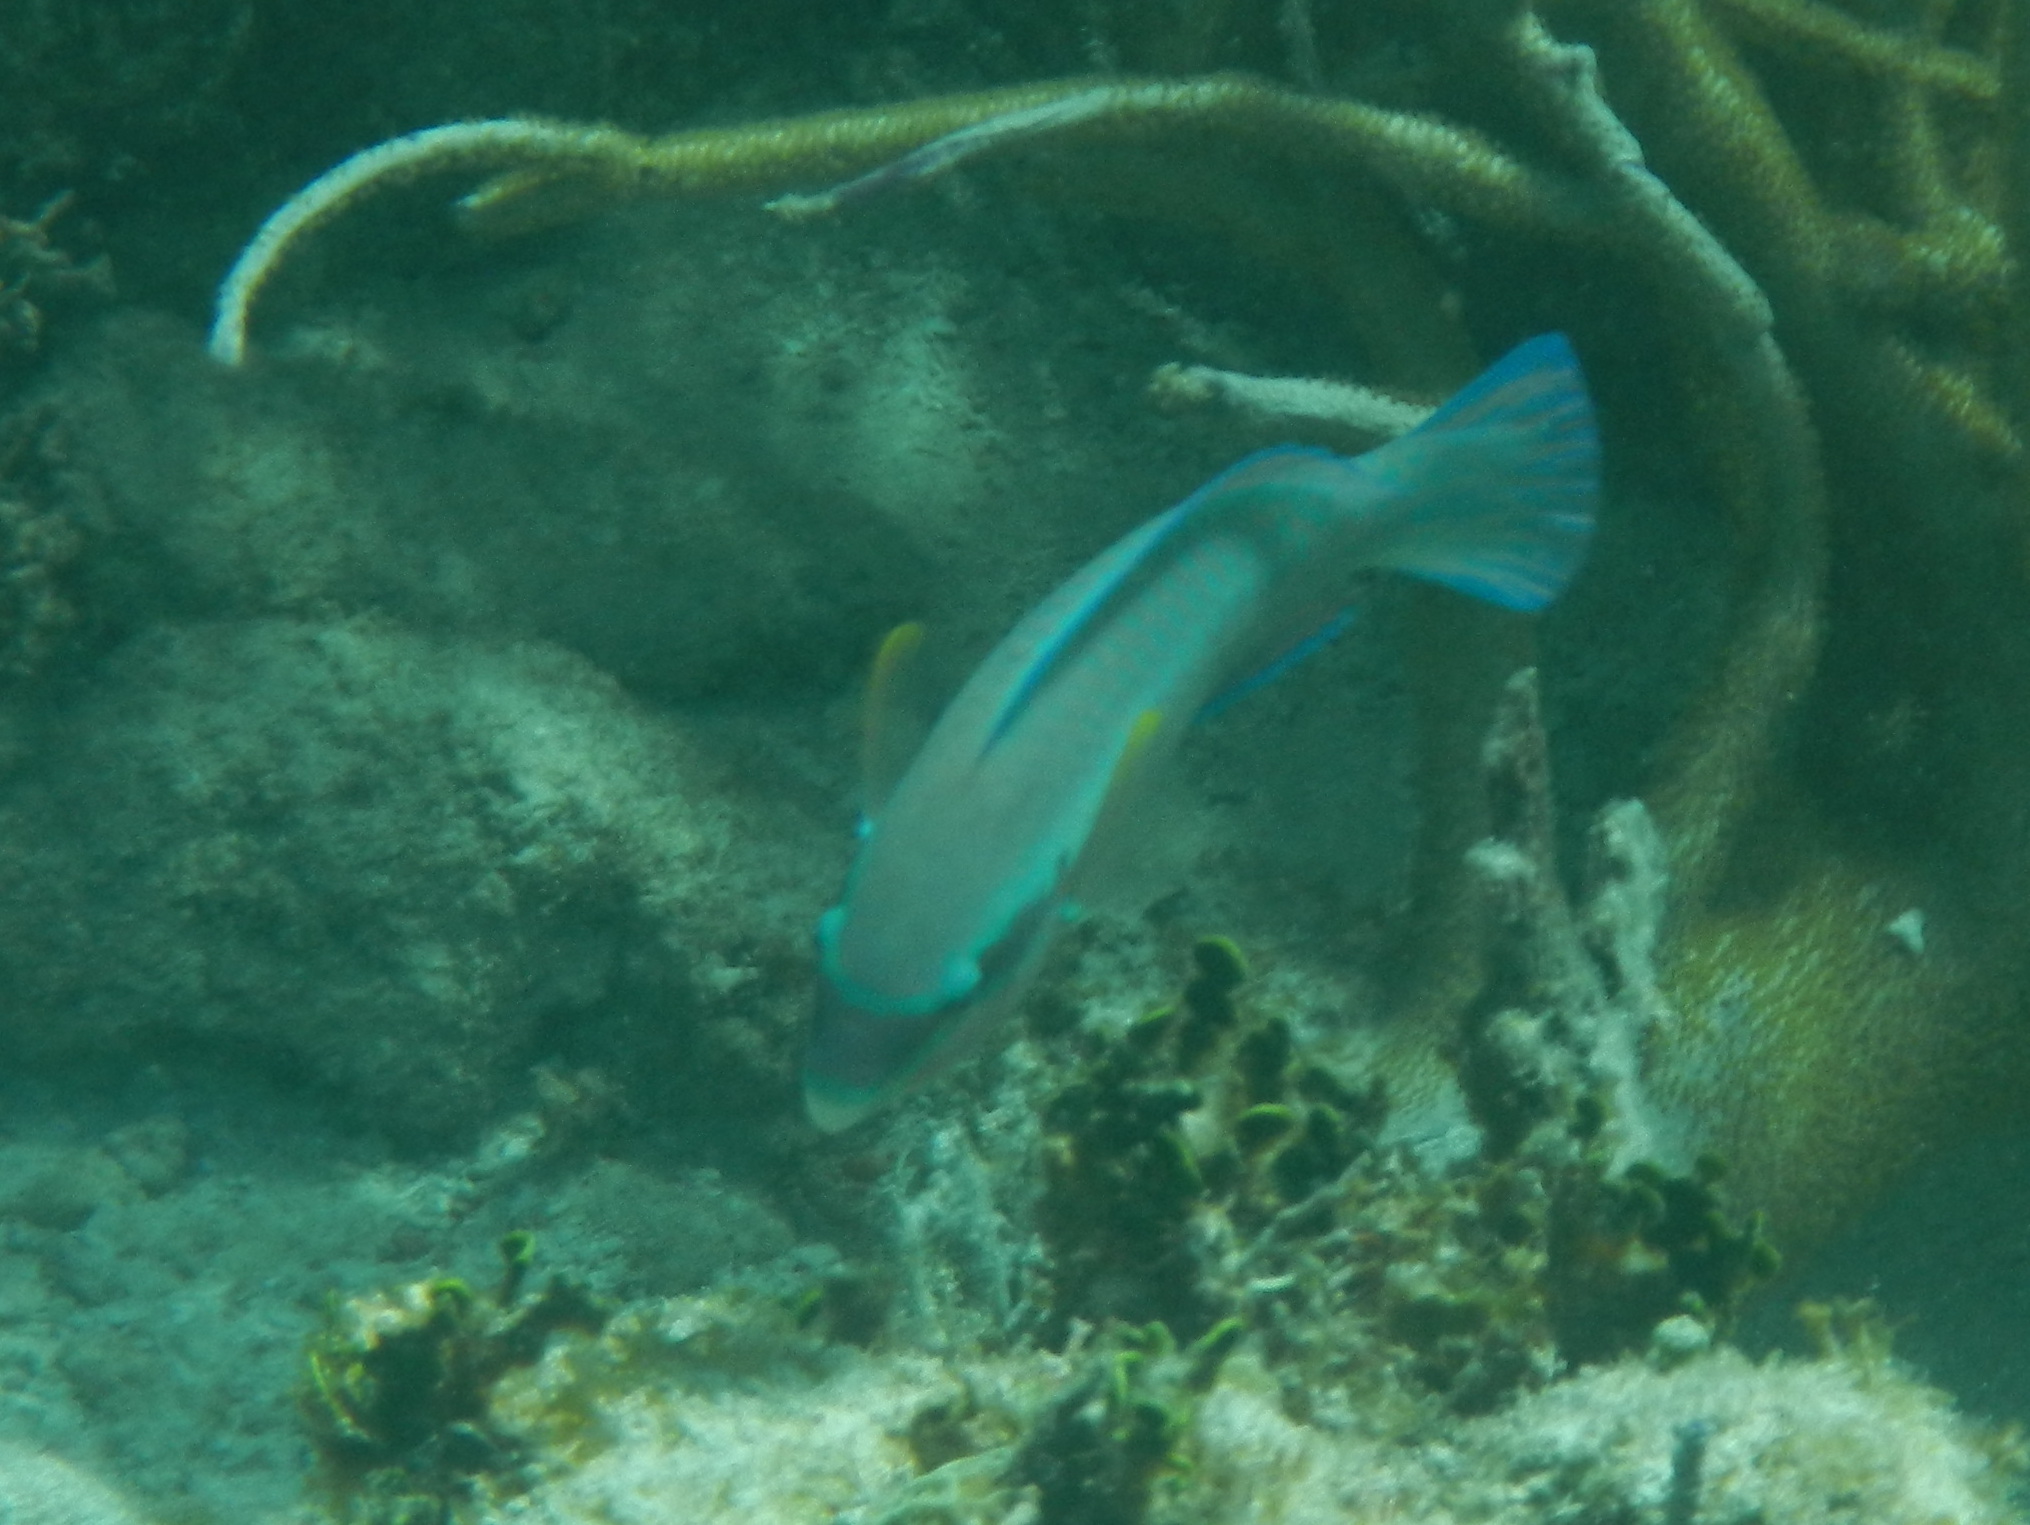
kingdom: Animalia
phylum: Chordata
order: Perciformes
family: Scaridae
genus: Scarus
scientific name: Scarus iseri
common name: Striped parrotfish
